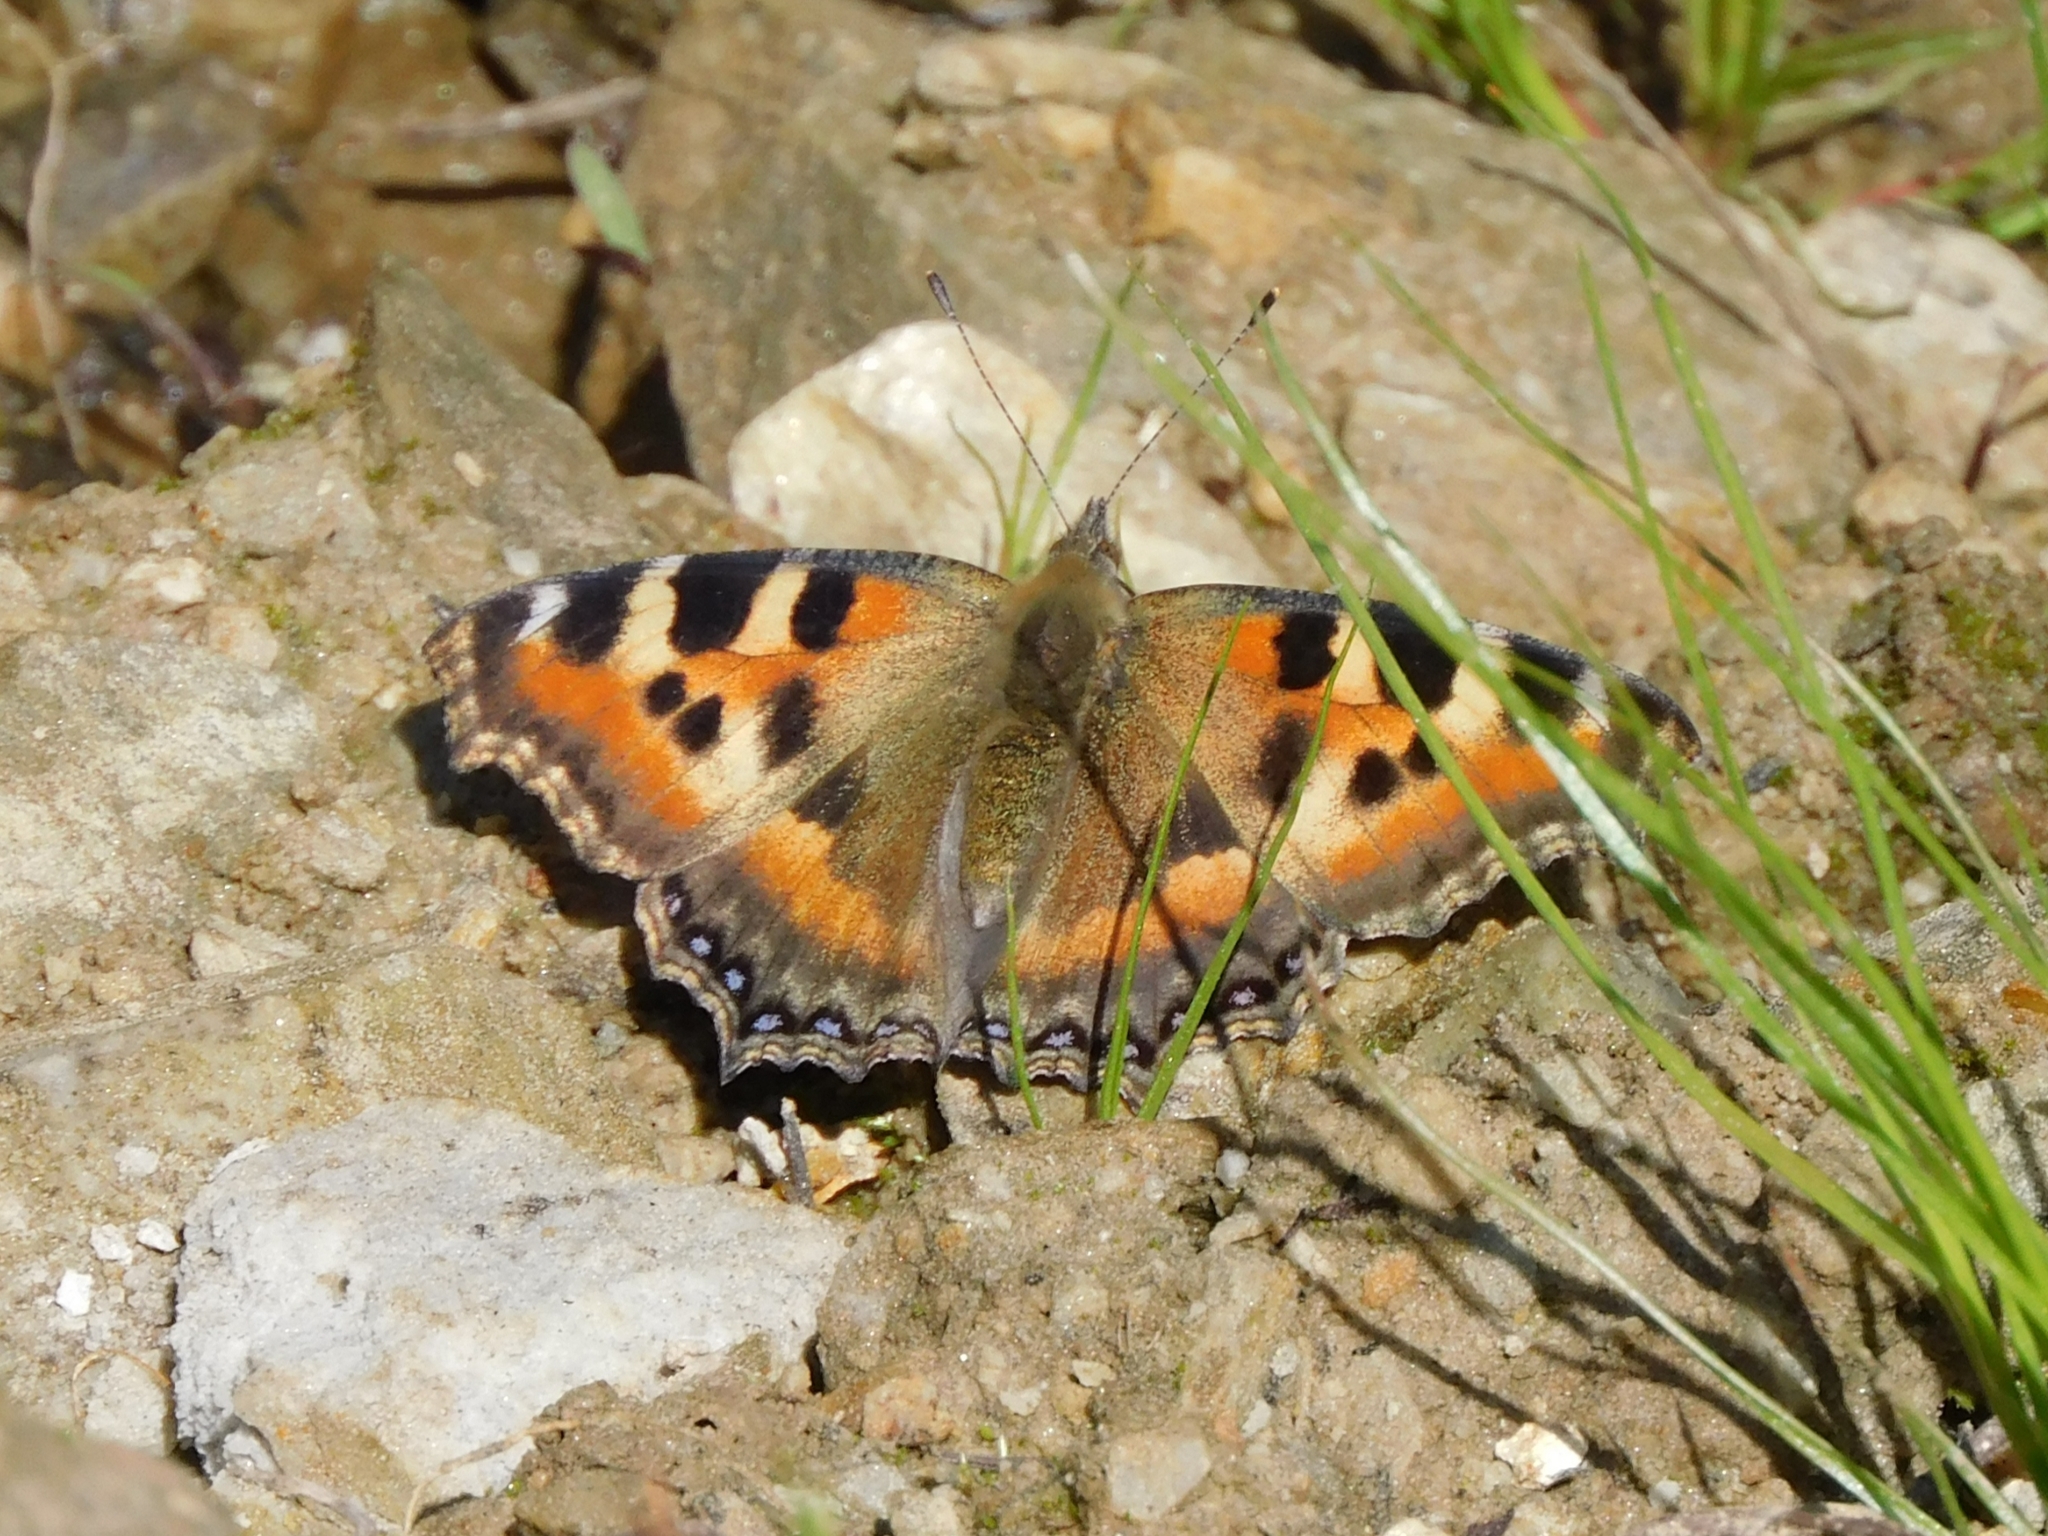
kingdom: Animalia
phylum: Arthropoda
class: Insecta
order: Lepidoptera
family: Nymphalidae
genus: Aglais
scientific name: Aglais caschmirensis
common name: Indian tortoiseshell
